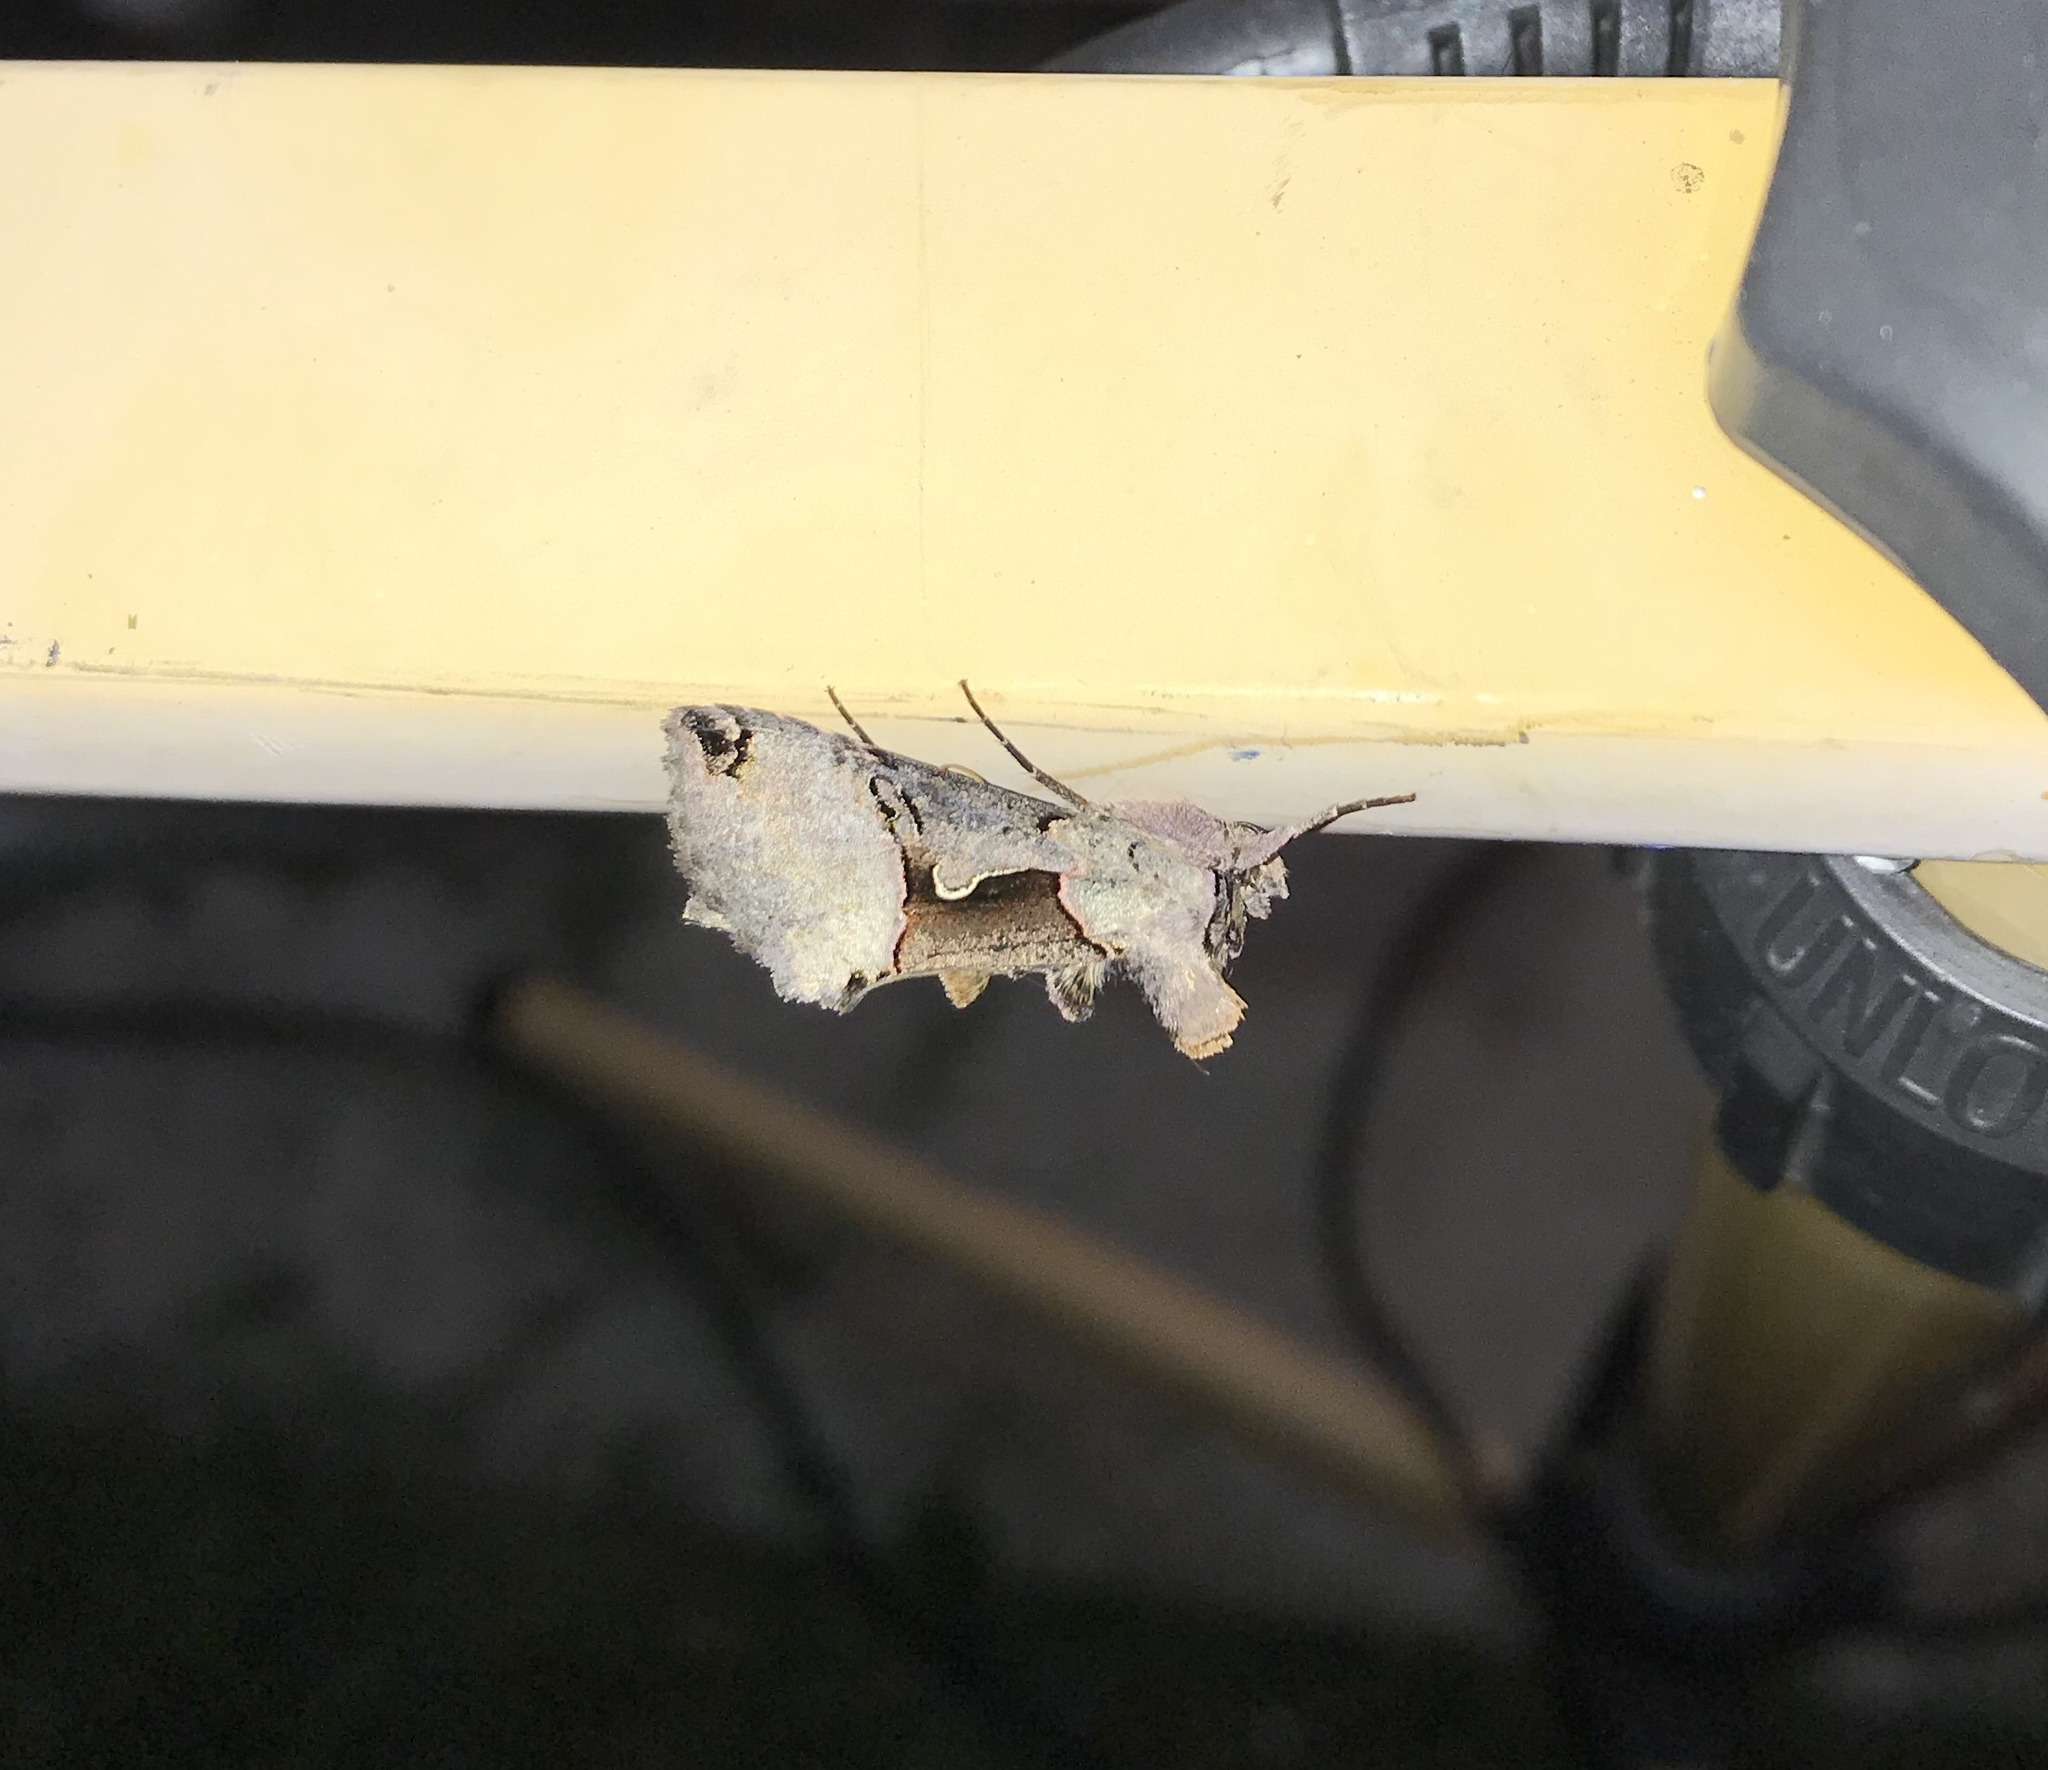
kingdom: Animalia
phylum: Arthropoda
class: Insecta
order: Lepidoptera
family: Noctuidae
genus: Autographa
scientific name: Autographa ampla
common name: Large looper moth
